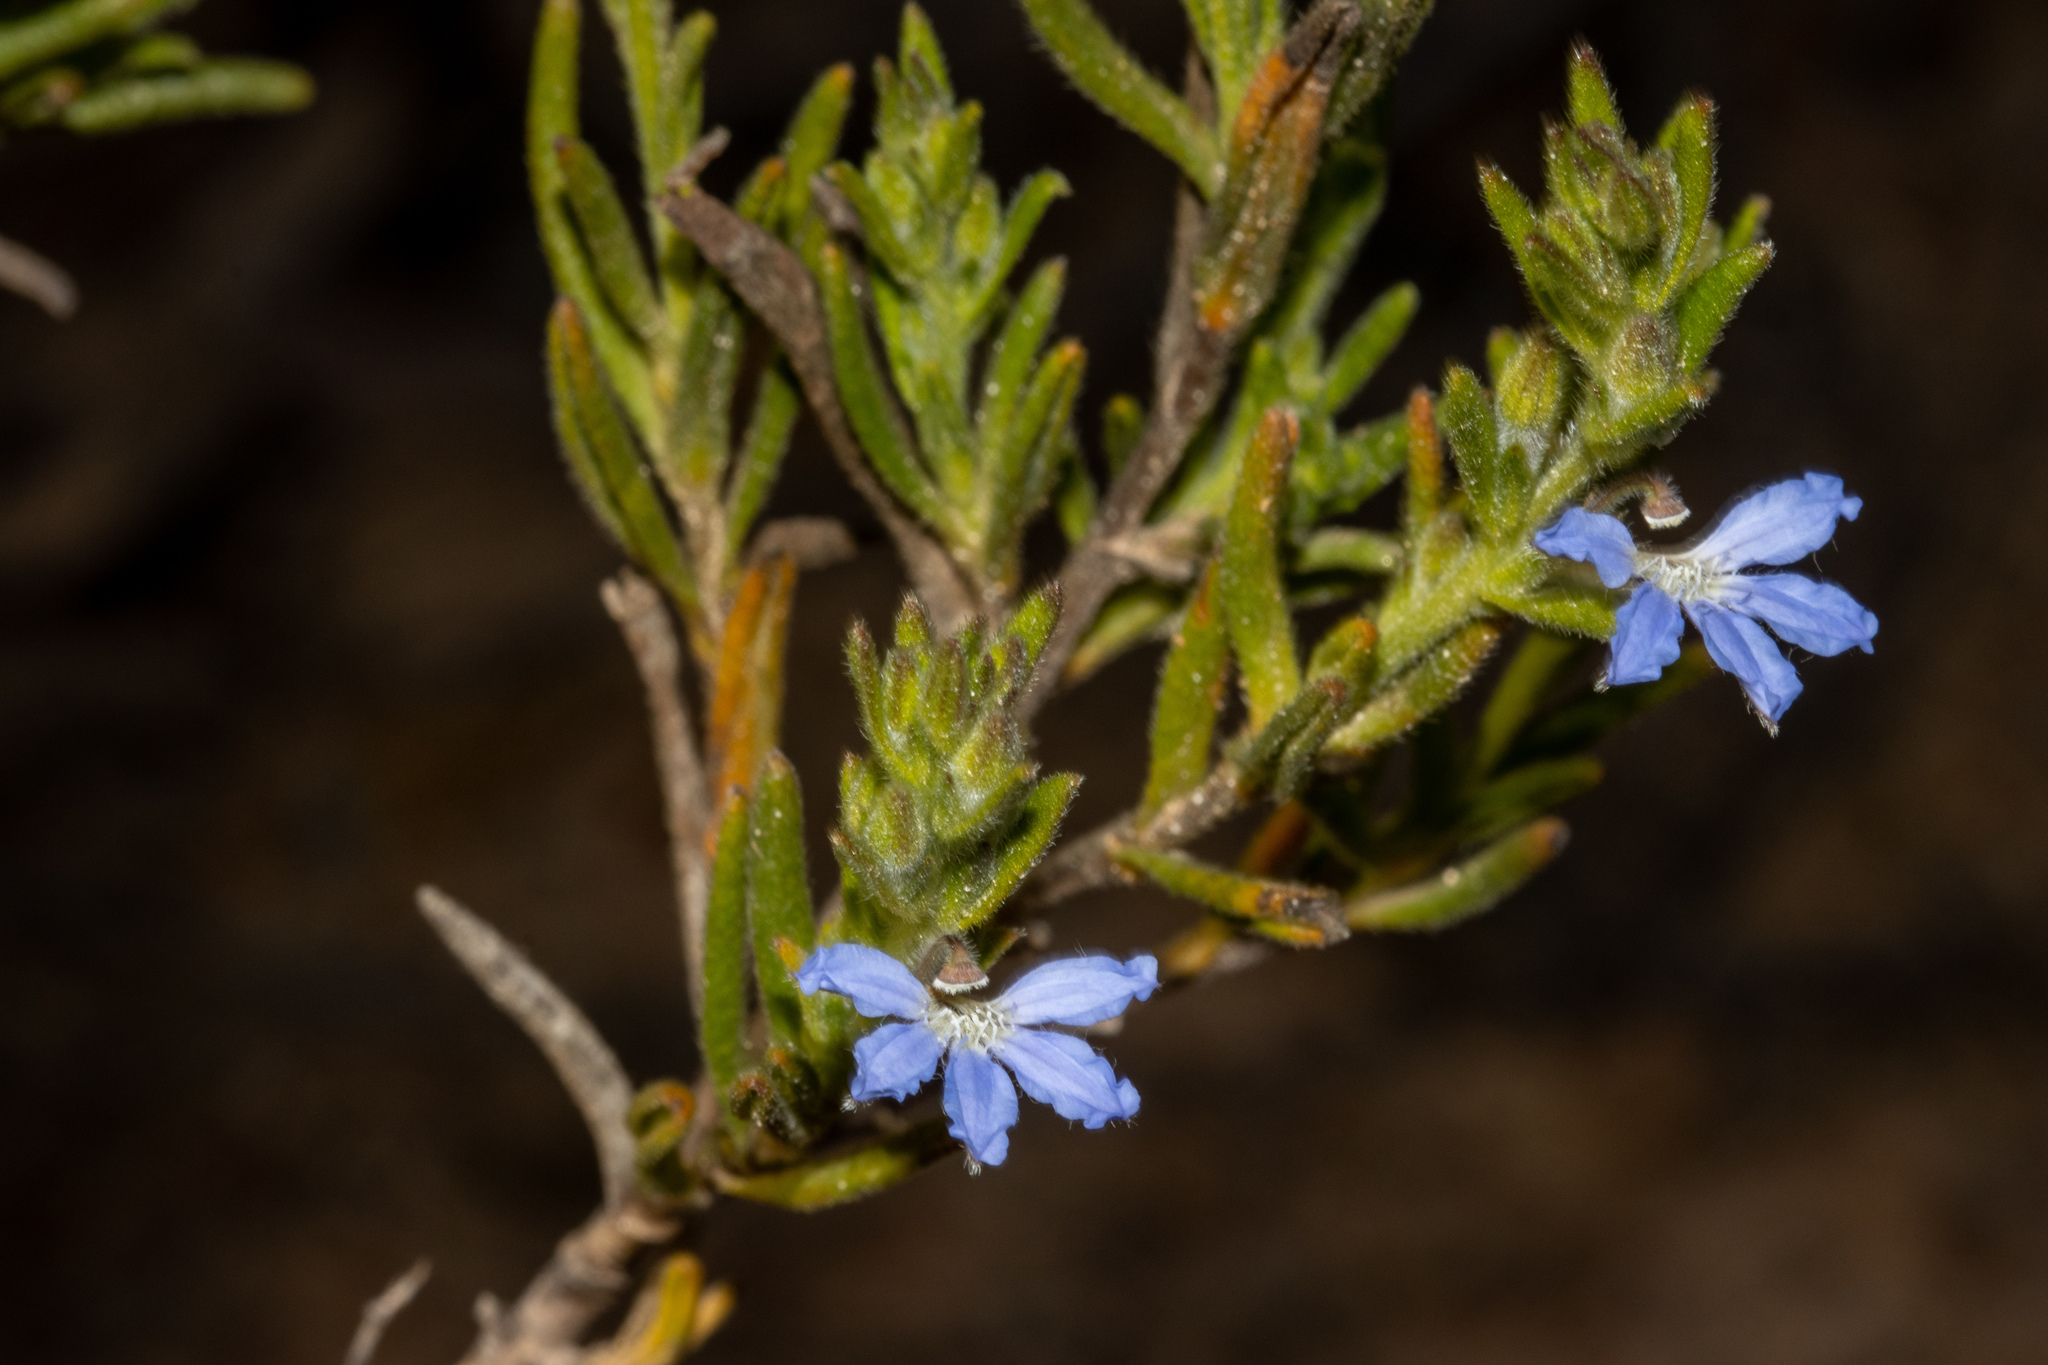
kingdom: Plantae
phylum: Tracheophyta
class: Magnoliopsida
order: Asterales
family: Goodeniaceae
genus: Scaevola
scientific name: Scaevola linearis
